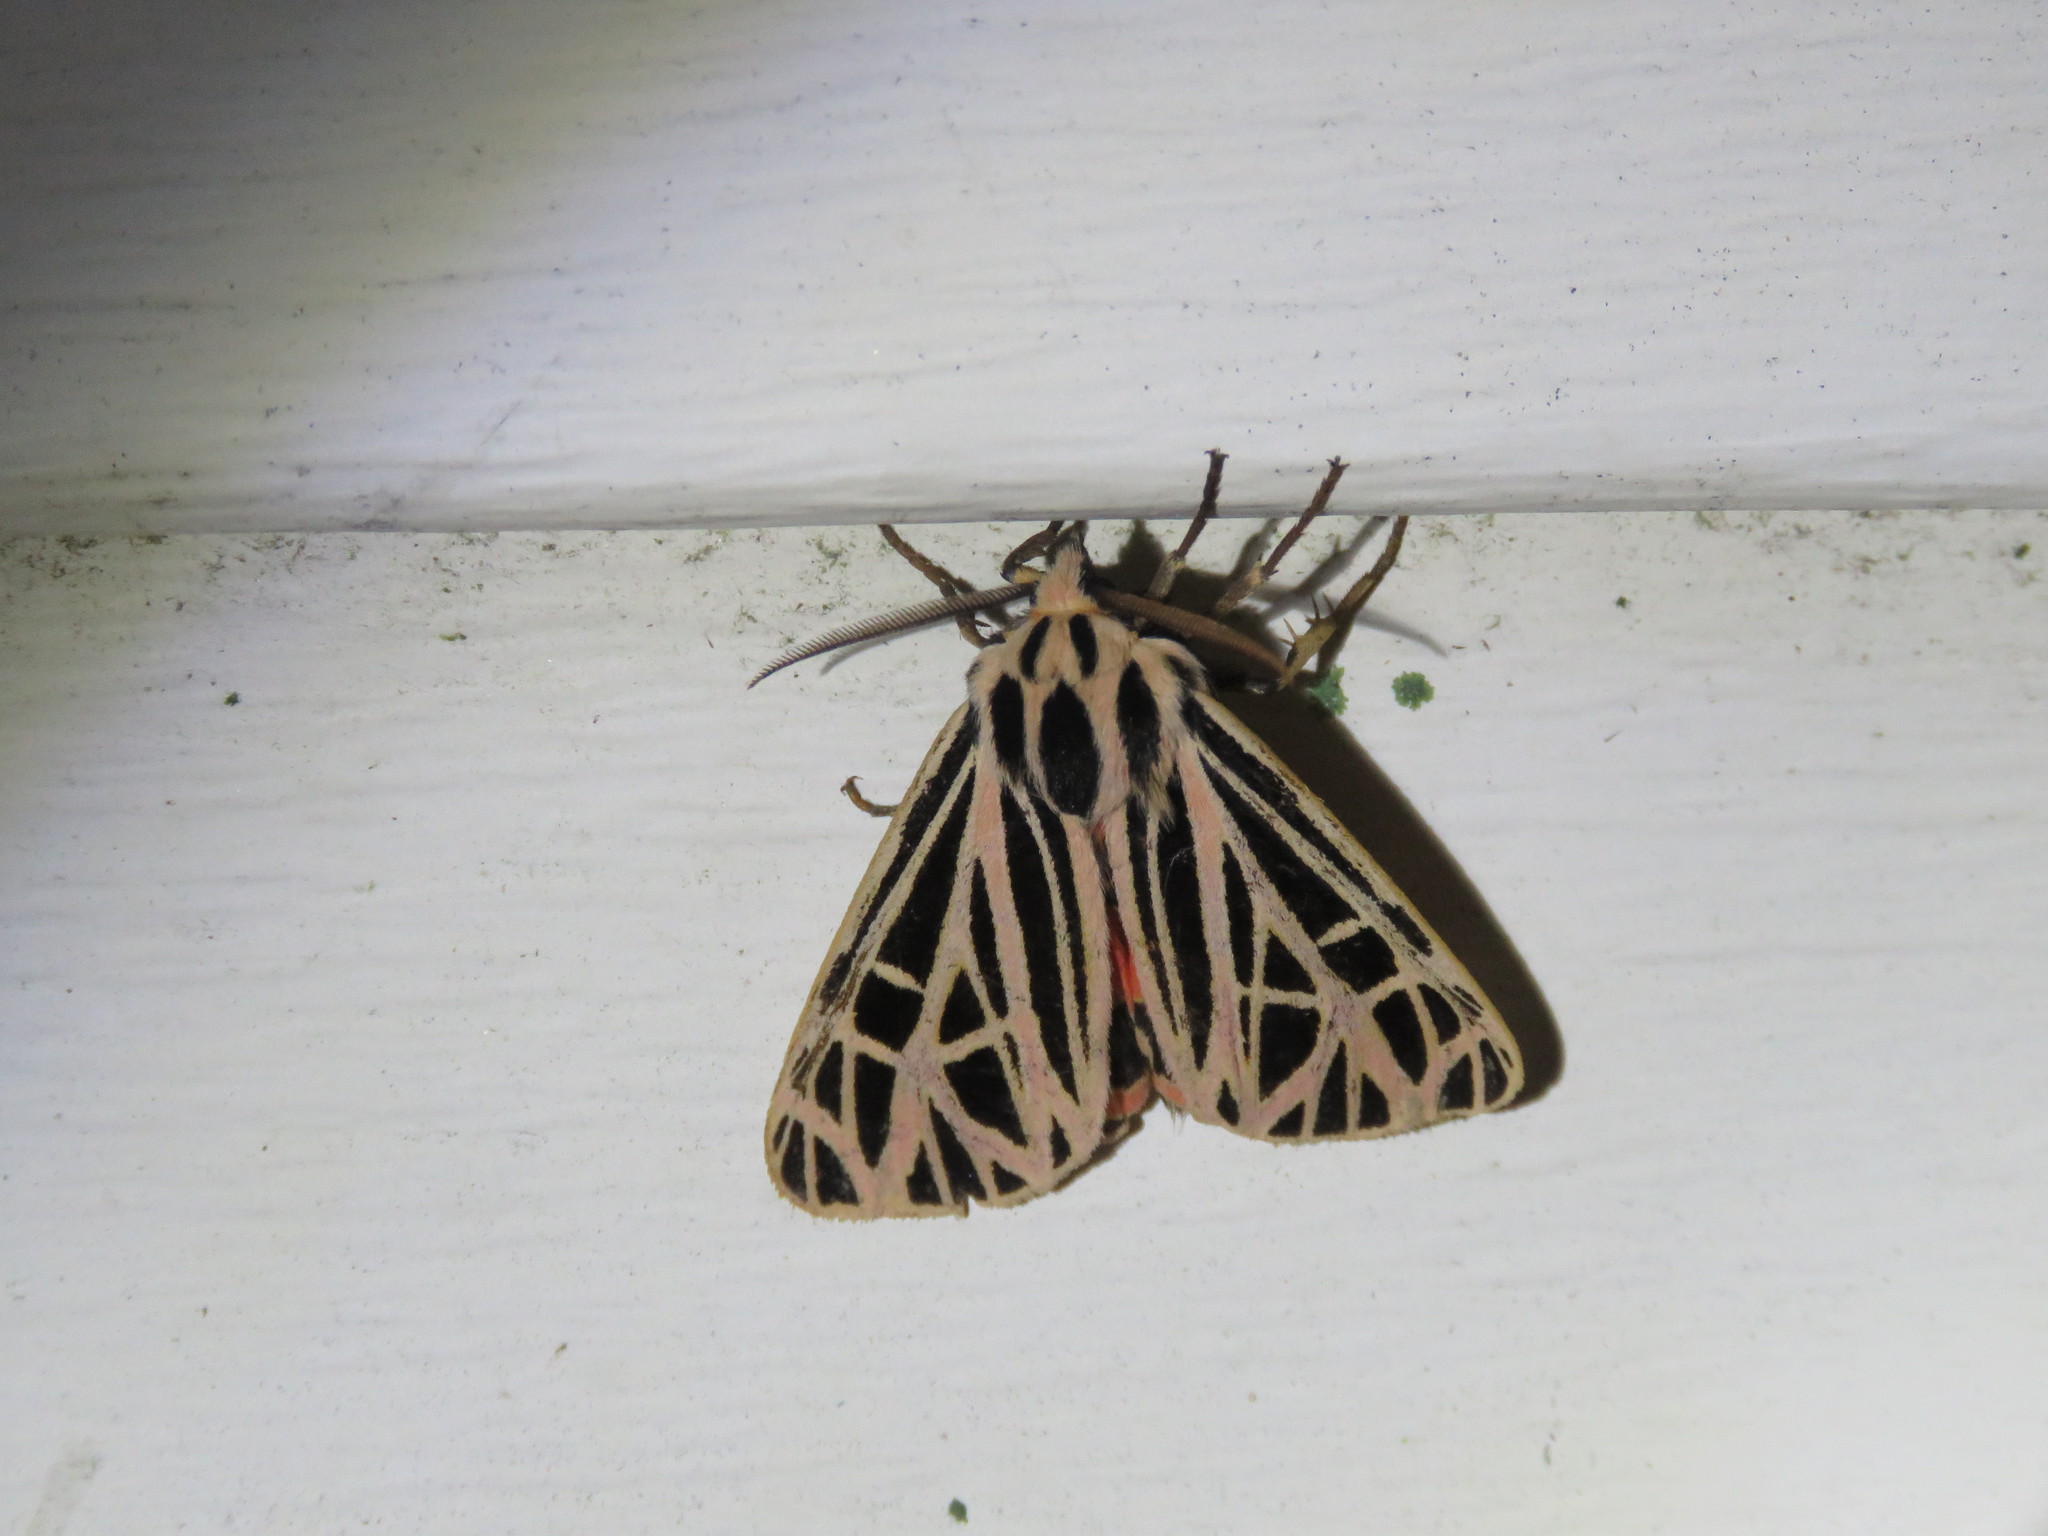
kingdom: Animalia
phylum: Arthropoda
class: Insecta
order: Lepidoptera
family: Erebidae
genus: Grammia
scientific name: Grammia virgo
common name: Virgin tiger moth
